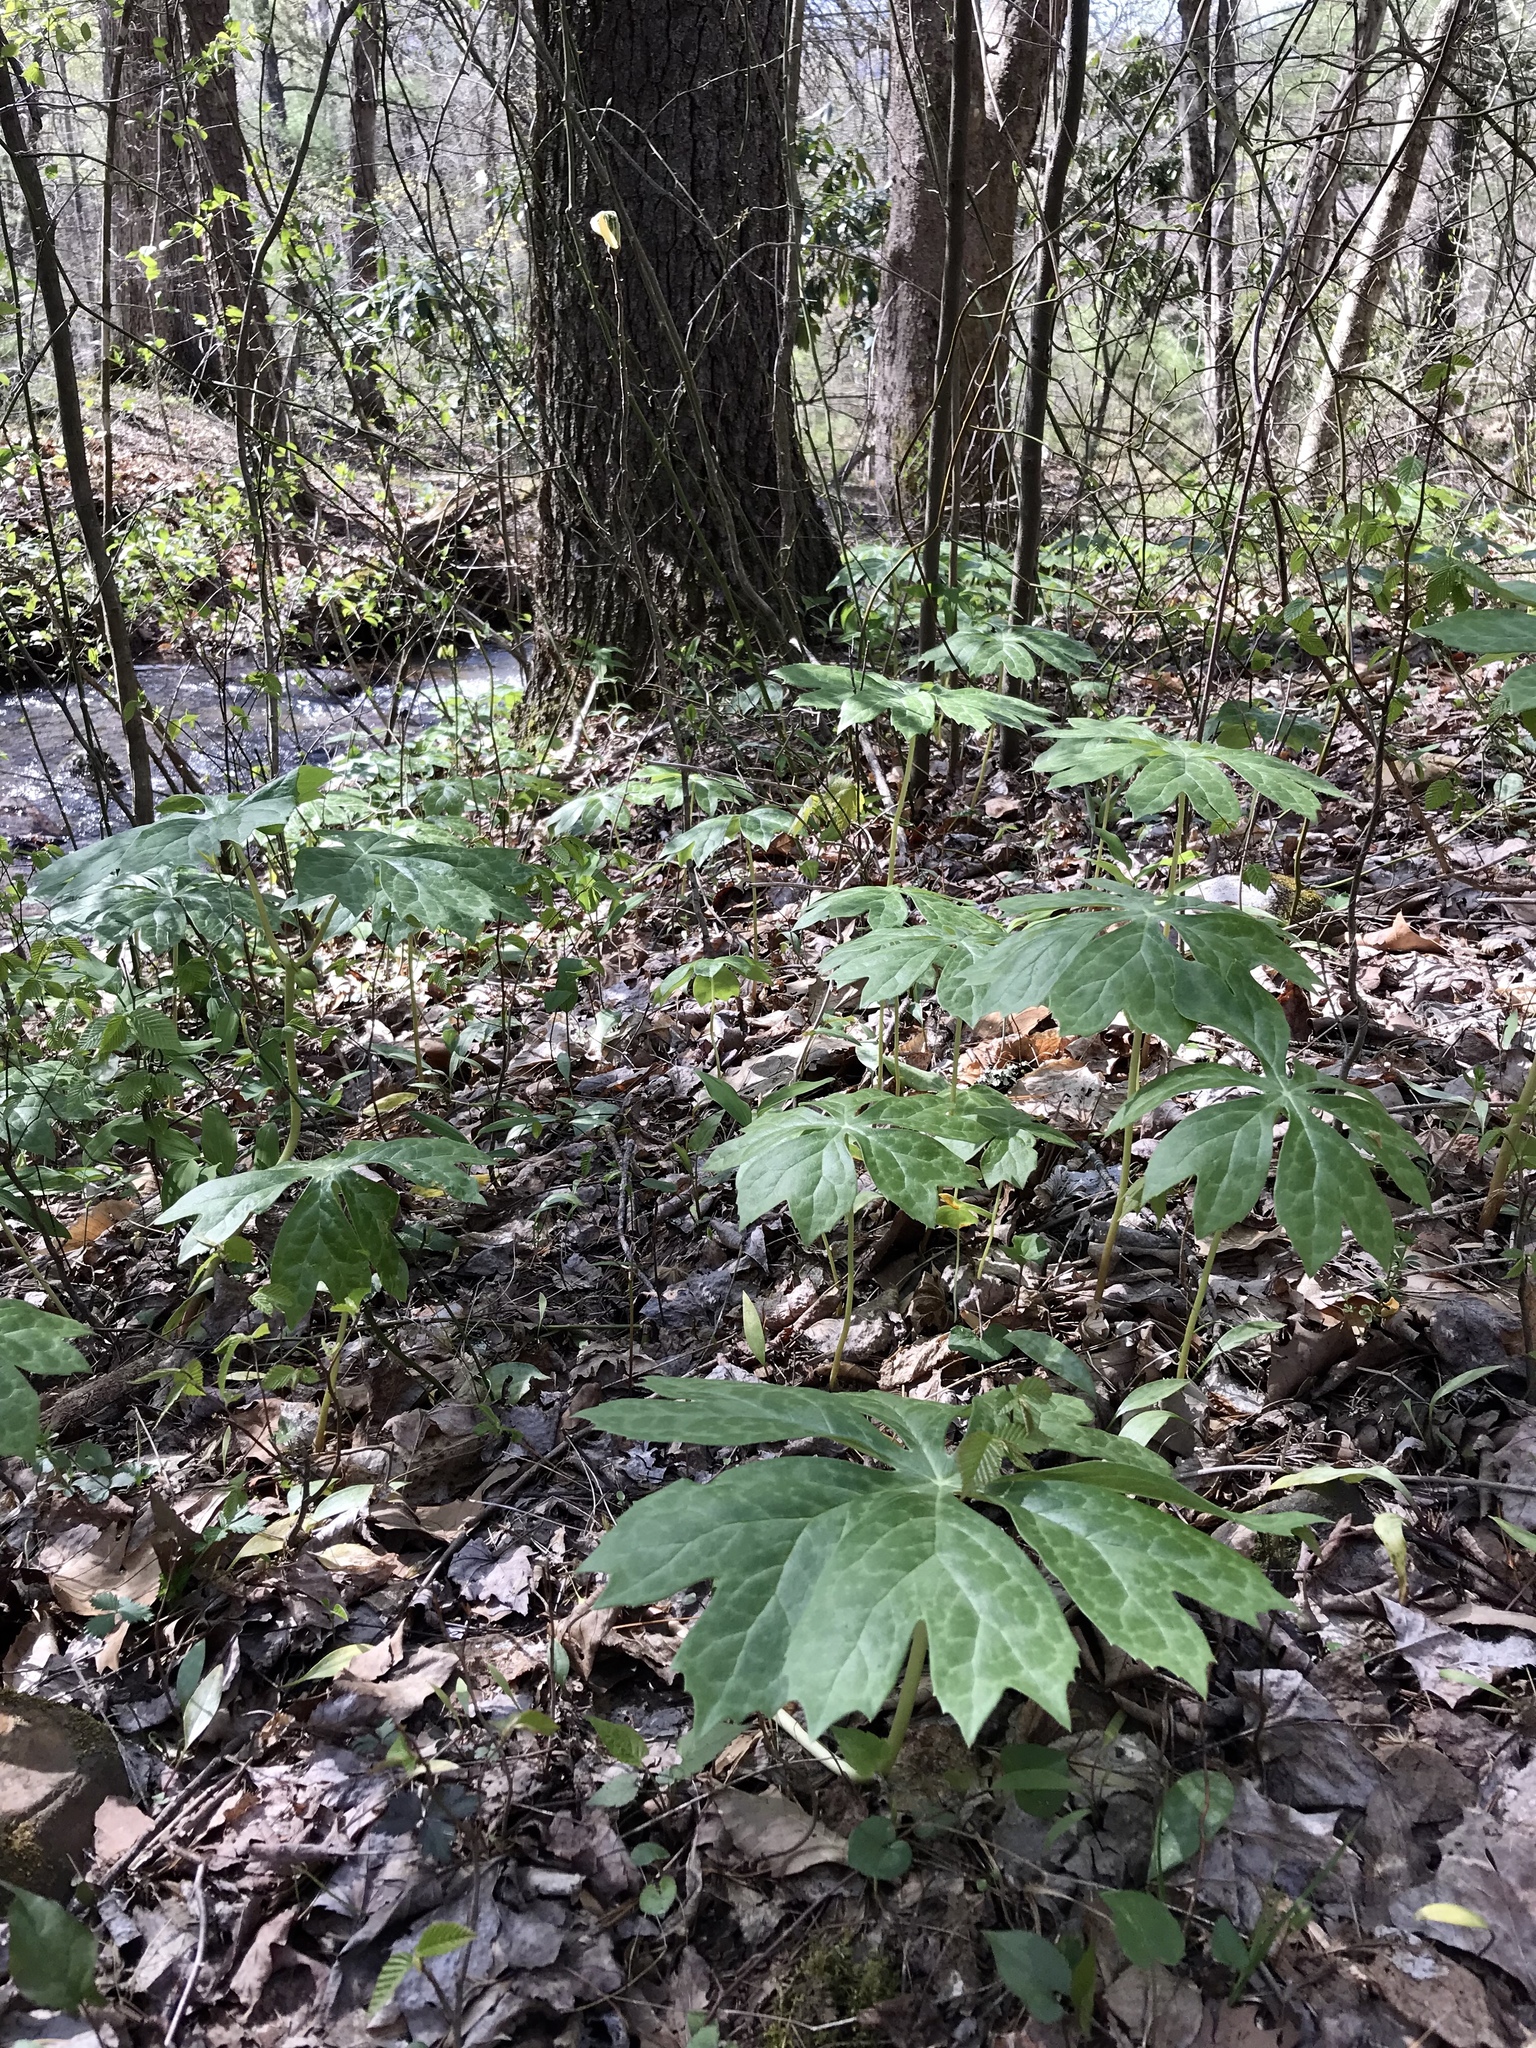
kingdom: Plantae
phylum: Tracheophyta
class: Magnoliopsida
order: Ranunculales
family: Berberidaceae
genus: Podophyllum
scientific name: Podophyllum peltatum
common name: Wild mandrake
